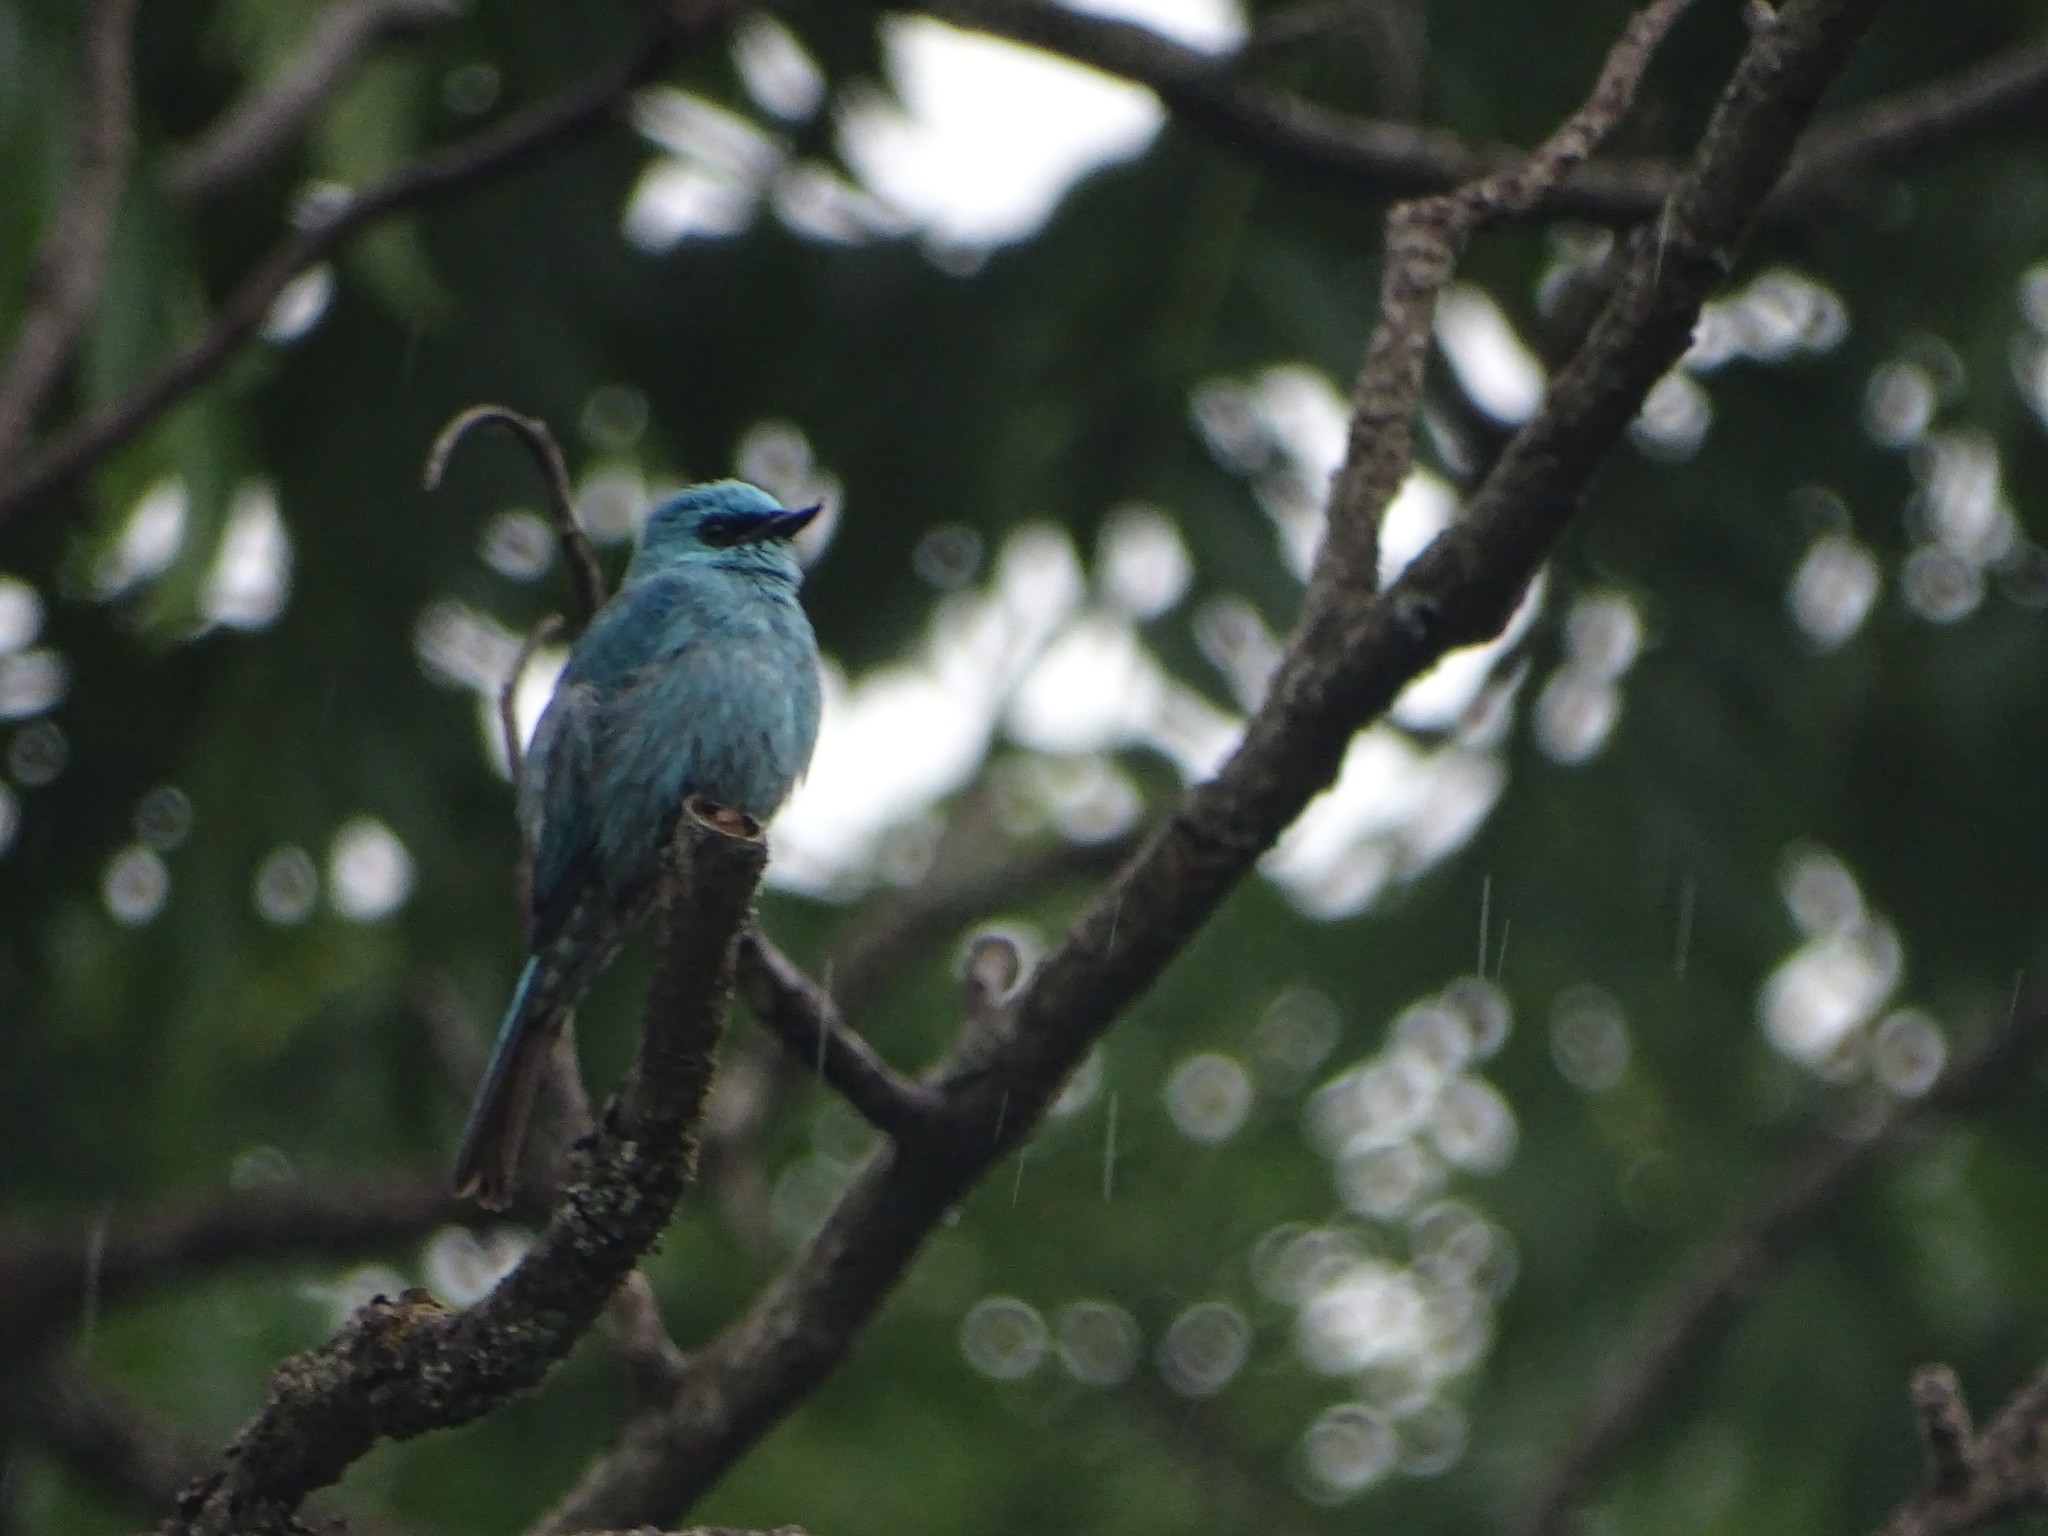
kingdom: Animalia
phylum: Chordata
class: Aves
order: Passeriformes
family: Muscicapidae
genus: Eumyias
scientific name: Eumyias thalassinus
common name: Verditer flycatcher
